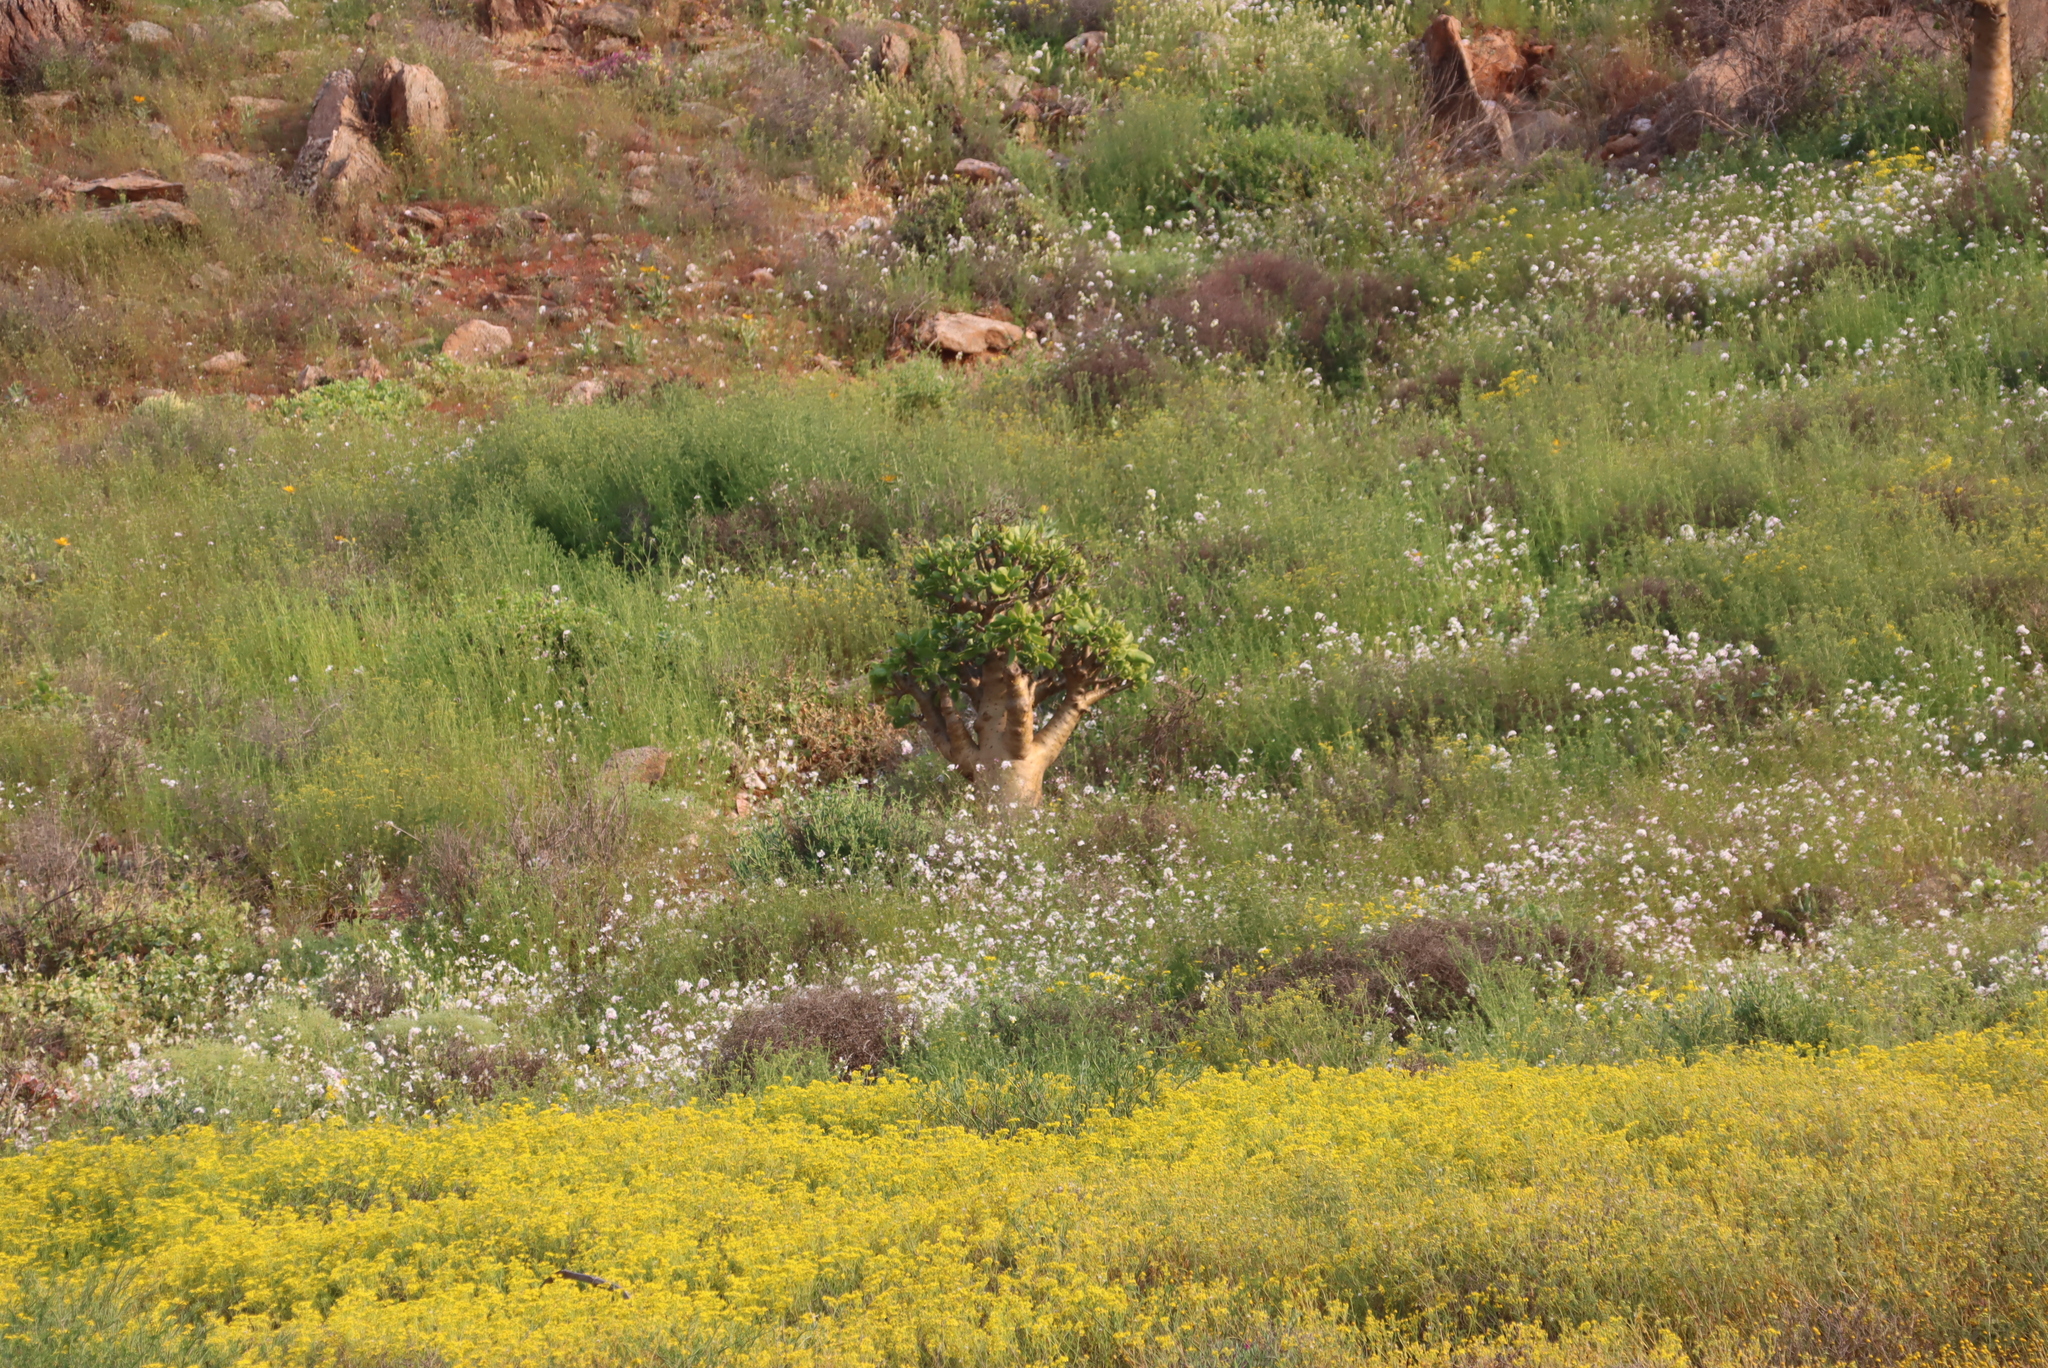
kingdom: Plantae
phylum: Tracheophyta
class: Magnoliopsida
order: Brassicales
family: Brassicaceae
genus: Heliophila
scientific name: Heliophila variabilis
